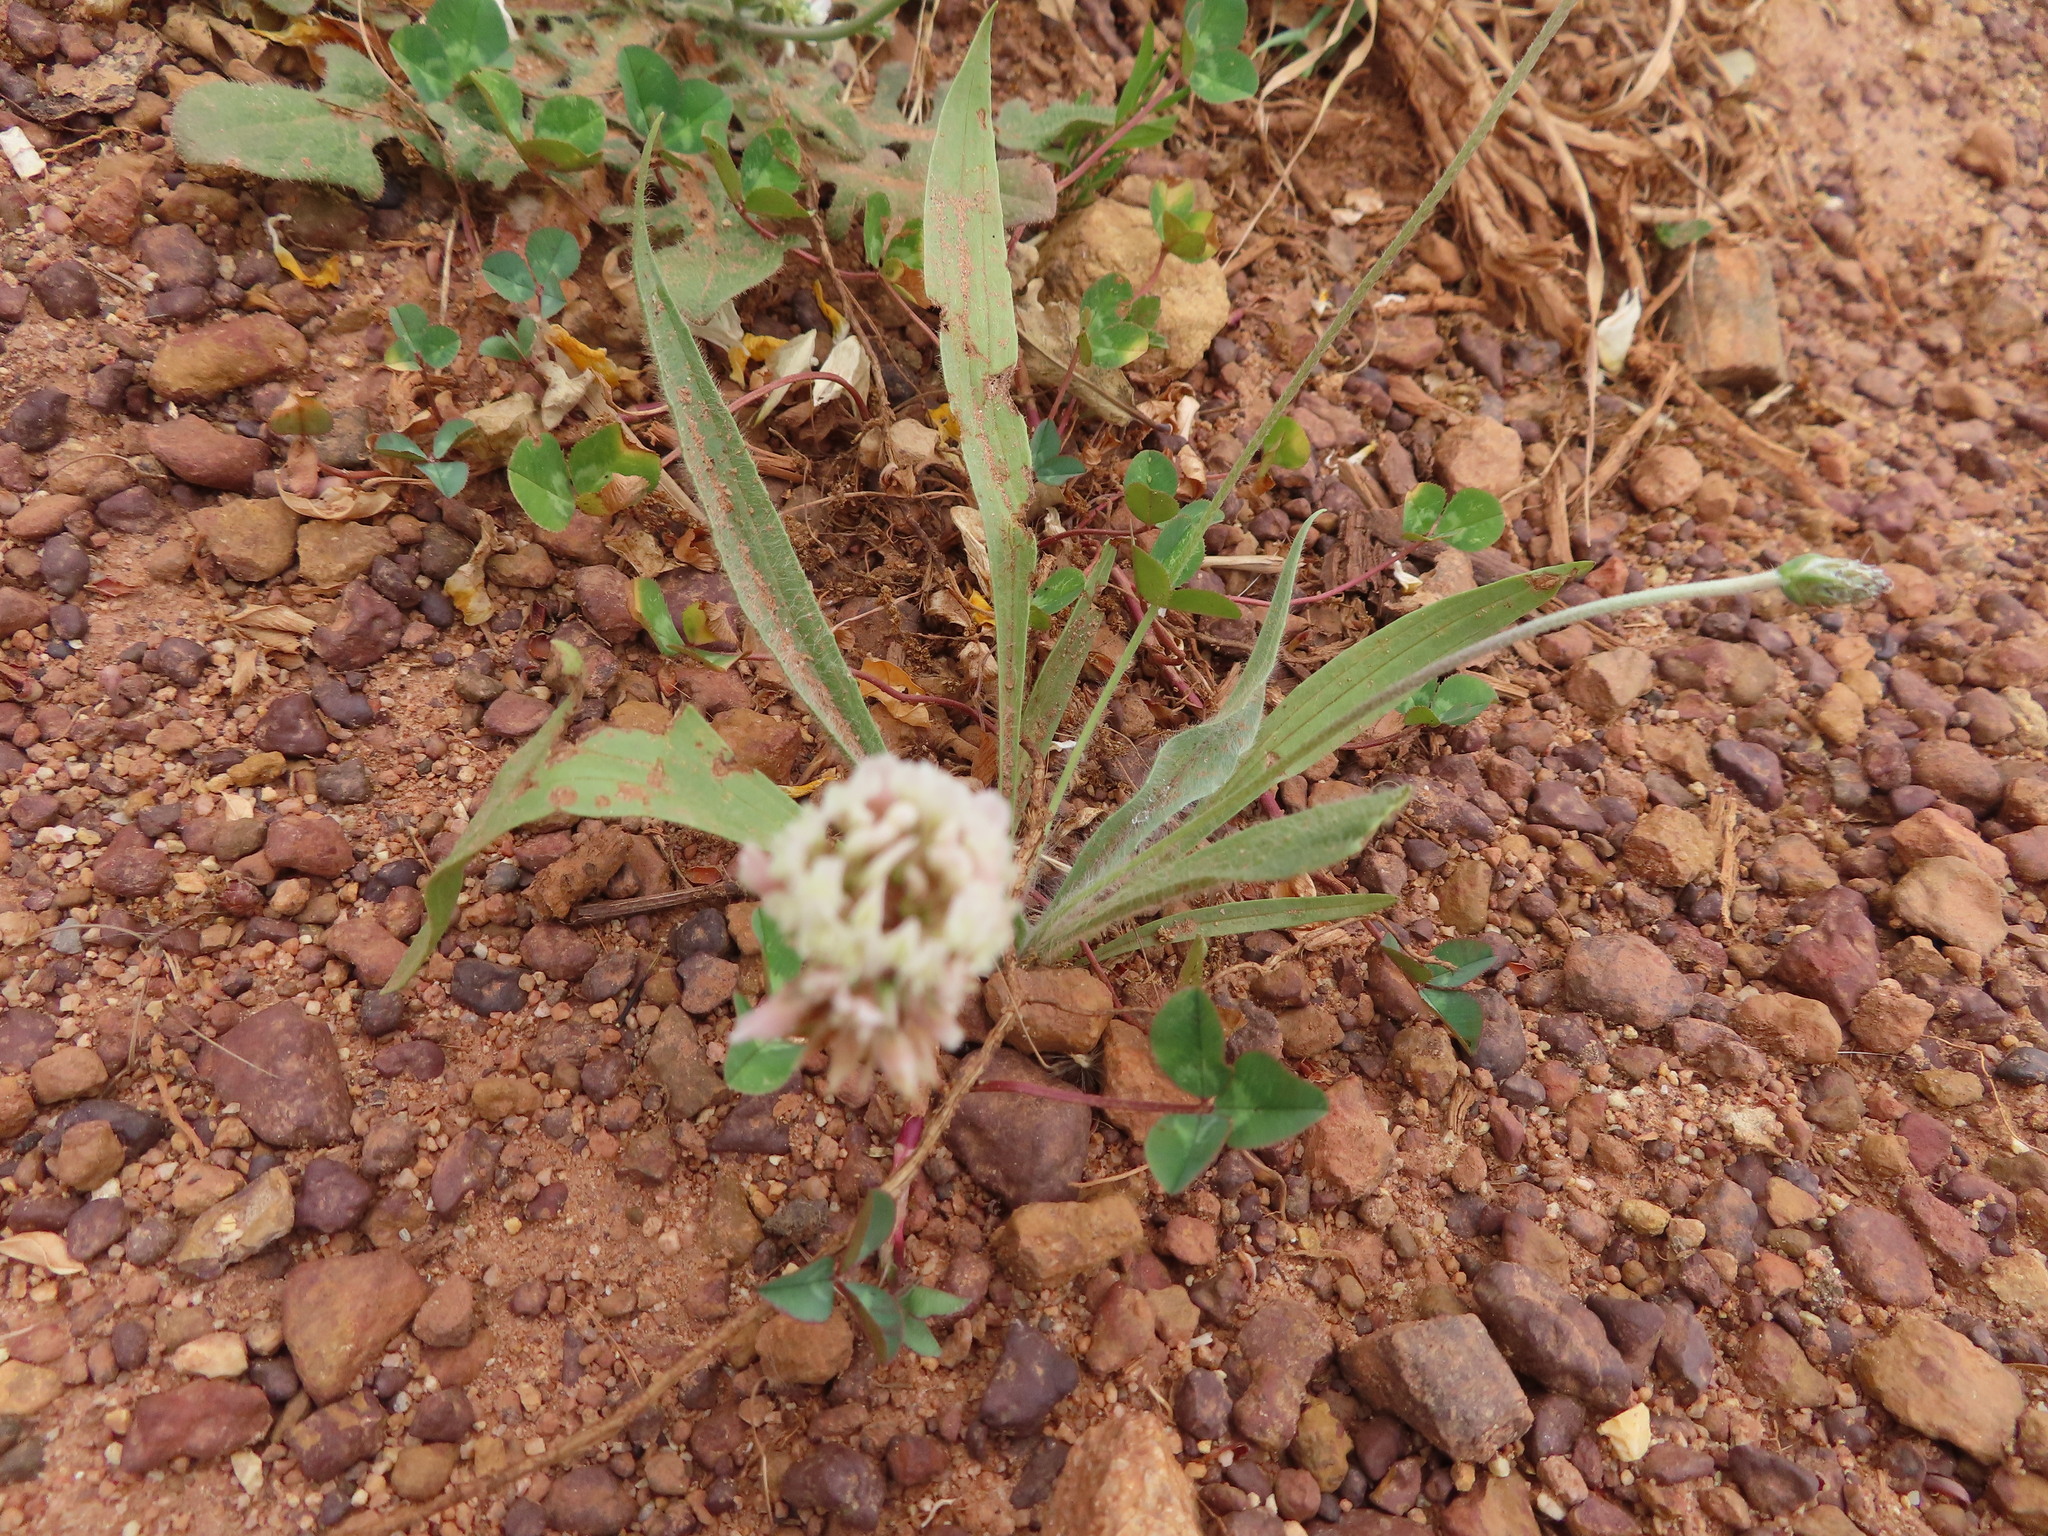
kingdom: Plantae
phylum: Tracheophyta
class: Magnoliopsida
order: Fabales
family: Fabaceae
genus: Trifolium
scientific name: Trifolium repens
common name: White clover
